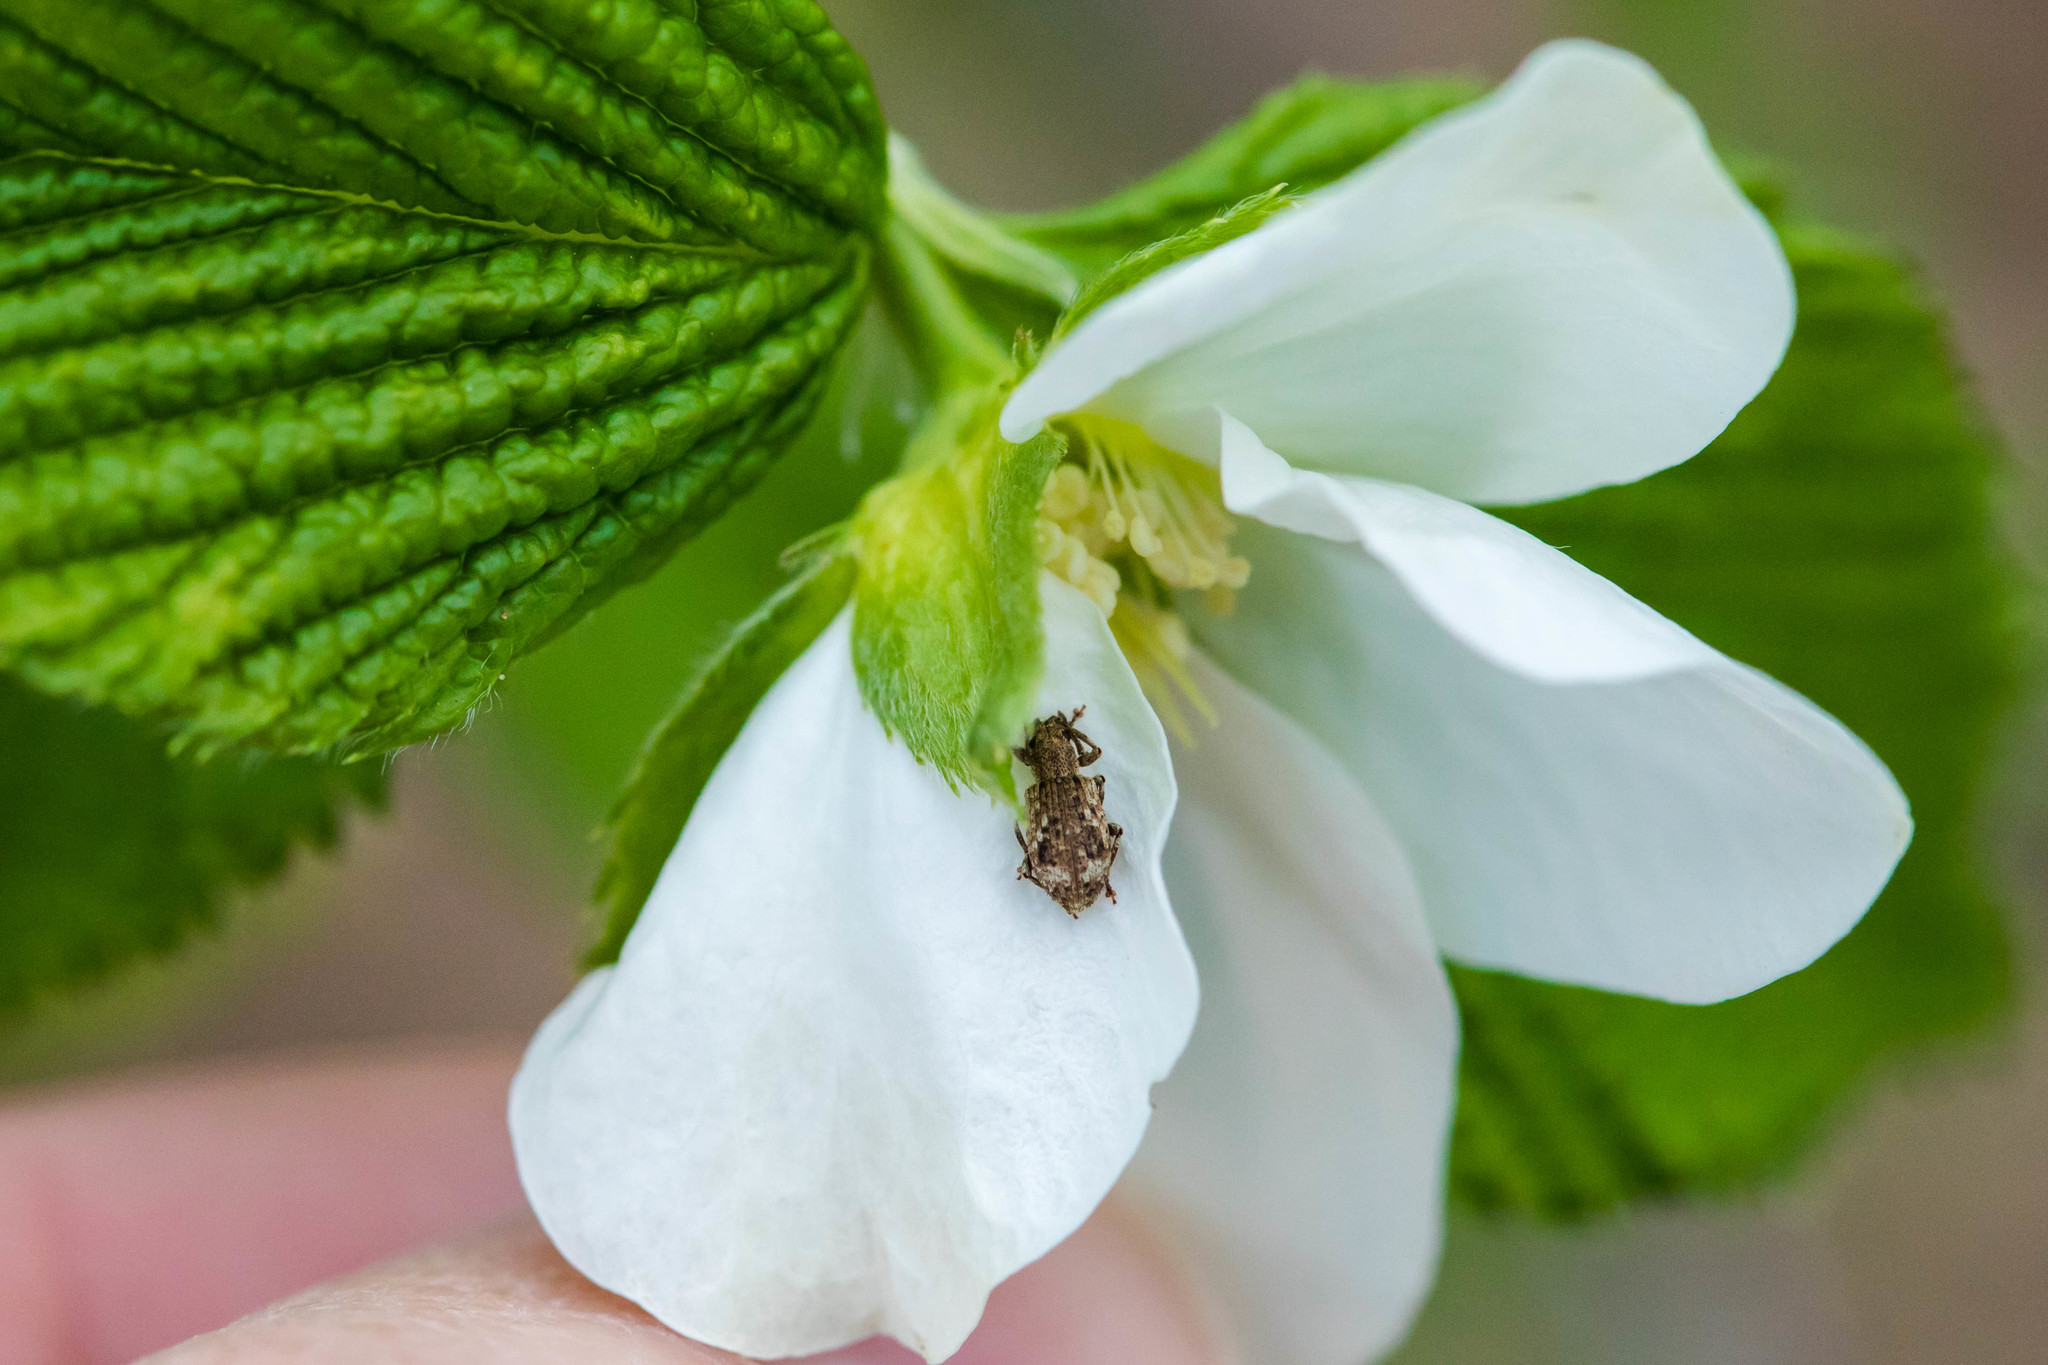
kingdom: Animalia
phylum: Arthropoda
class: Insecta
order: Coleoptera
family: Curculionidae
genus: Pseudoedophrys
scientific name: Pseudoedophrys hilleri
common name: Weevil
